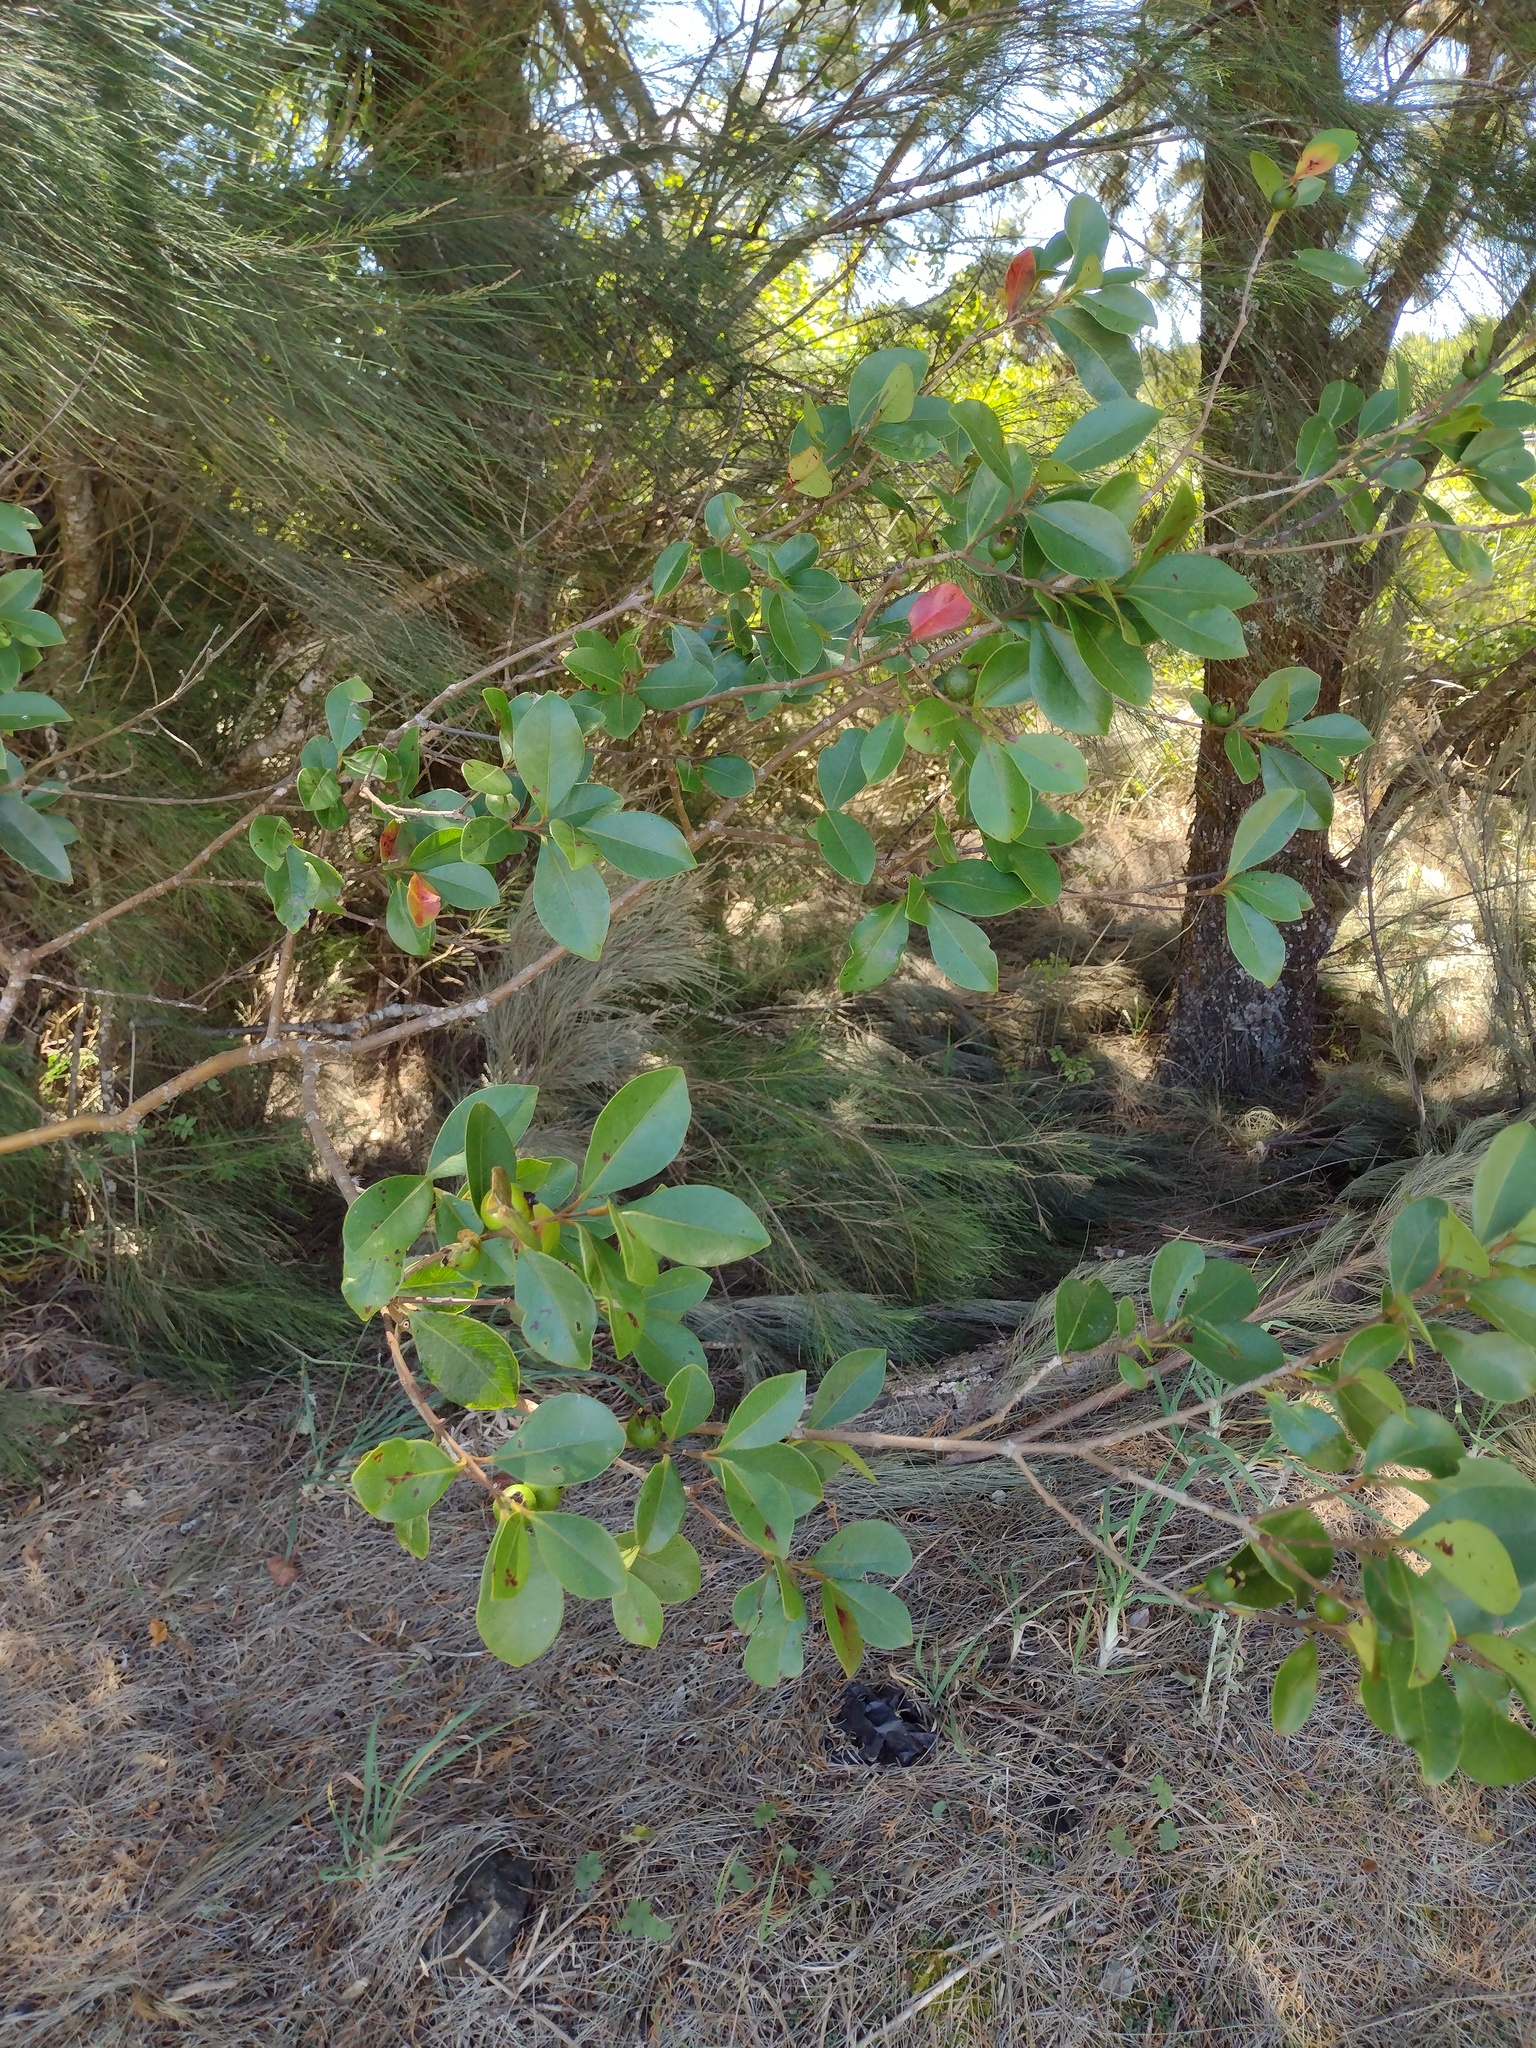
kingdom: Plantae
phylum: Tracheophyta
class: Magnoliopsida
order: Myrtales
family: Myrtaceae
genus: Psidium
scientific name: Psidium cattleianum
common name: Strawberry guava
